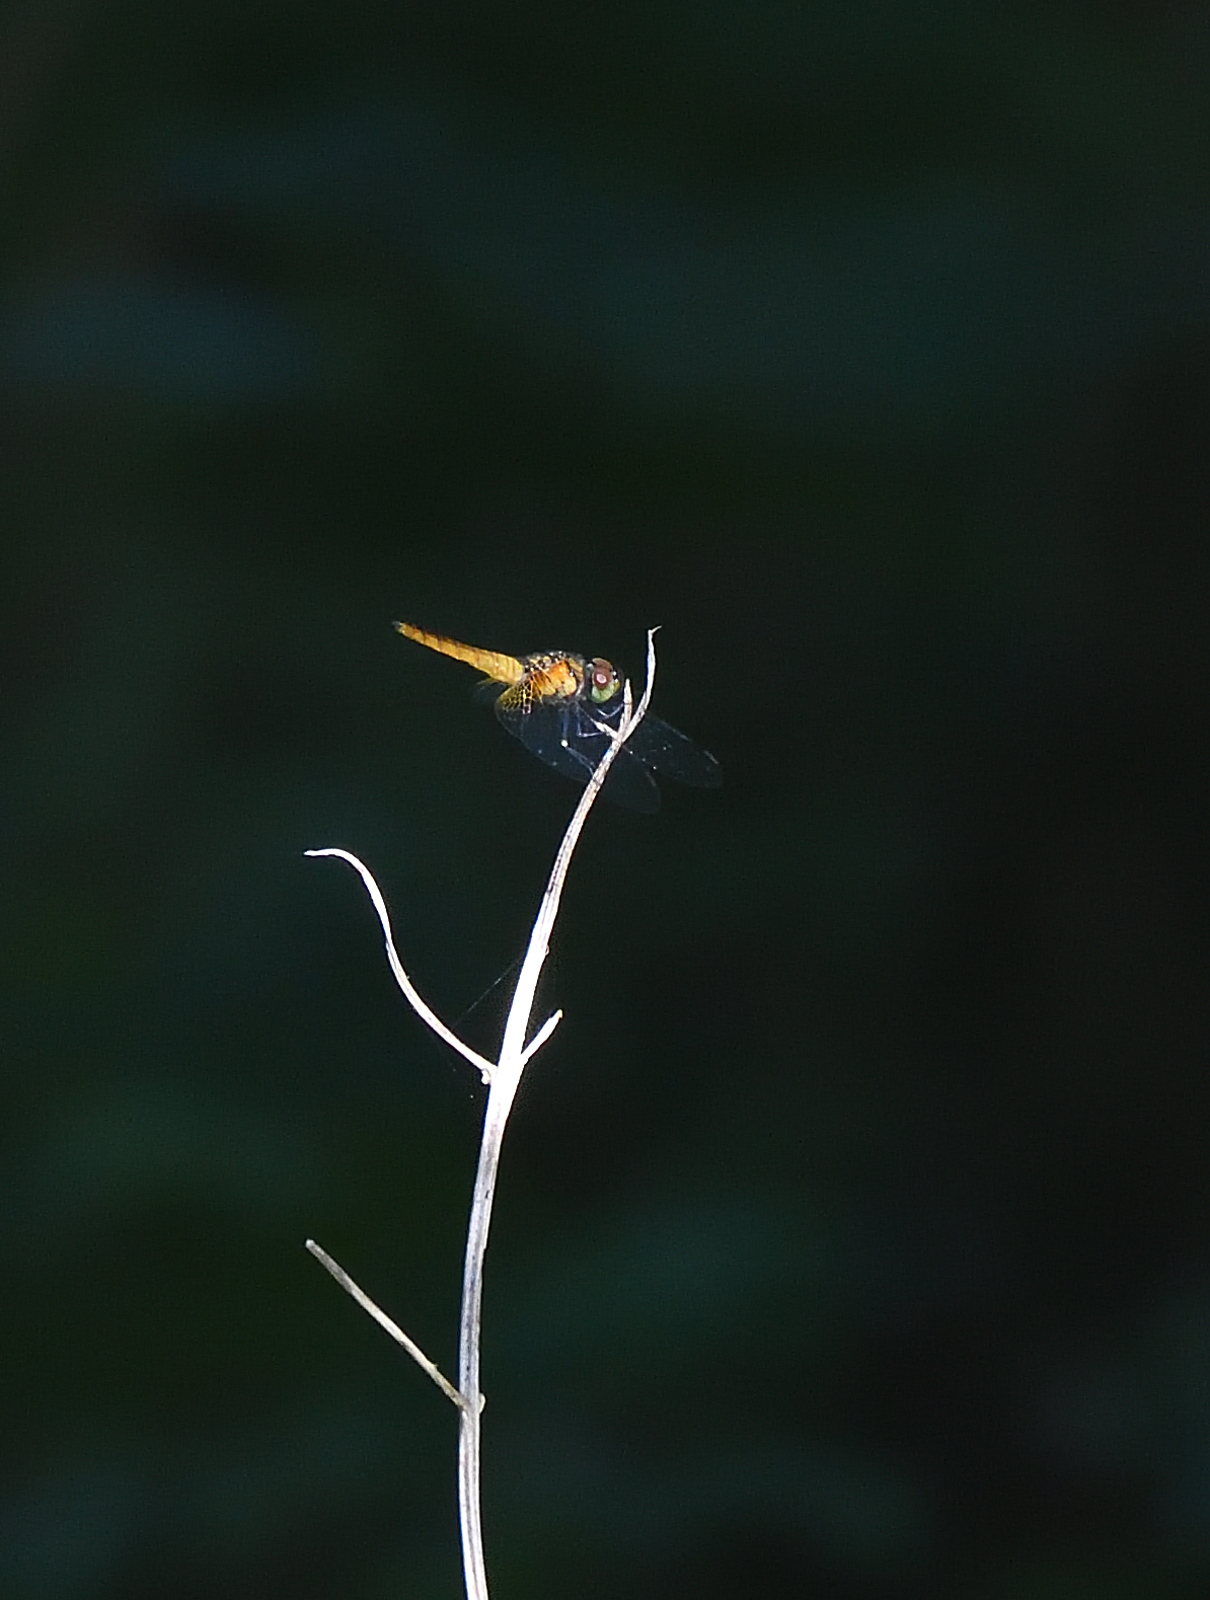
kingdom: Animalia
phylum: Arthropoda
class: Insecta
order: Odonata
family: Libellulidae
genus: Aethriamanta
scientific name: Aethriamanta brevipennis
